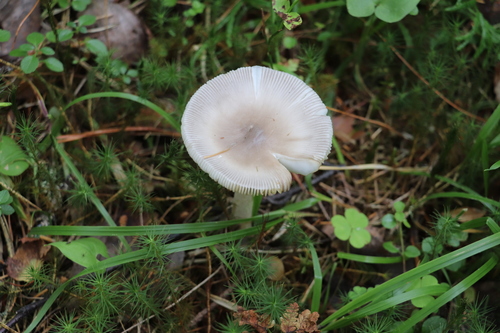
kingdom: Fungi
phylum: Basidiomycota
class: Agaricomycetes
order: Agaricales
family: Amanitaceae
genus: Amanita
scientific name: Amanita
